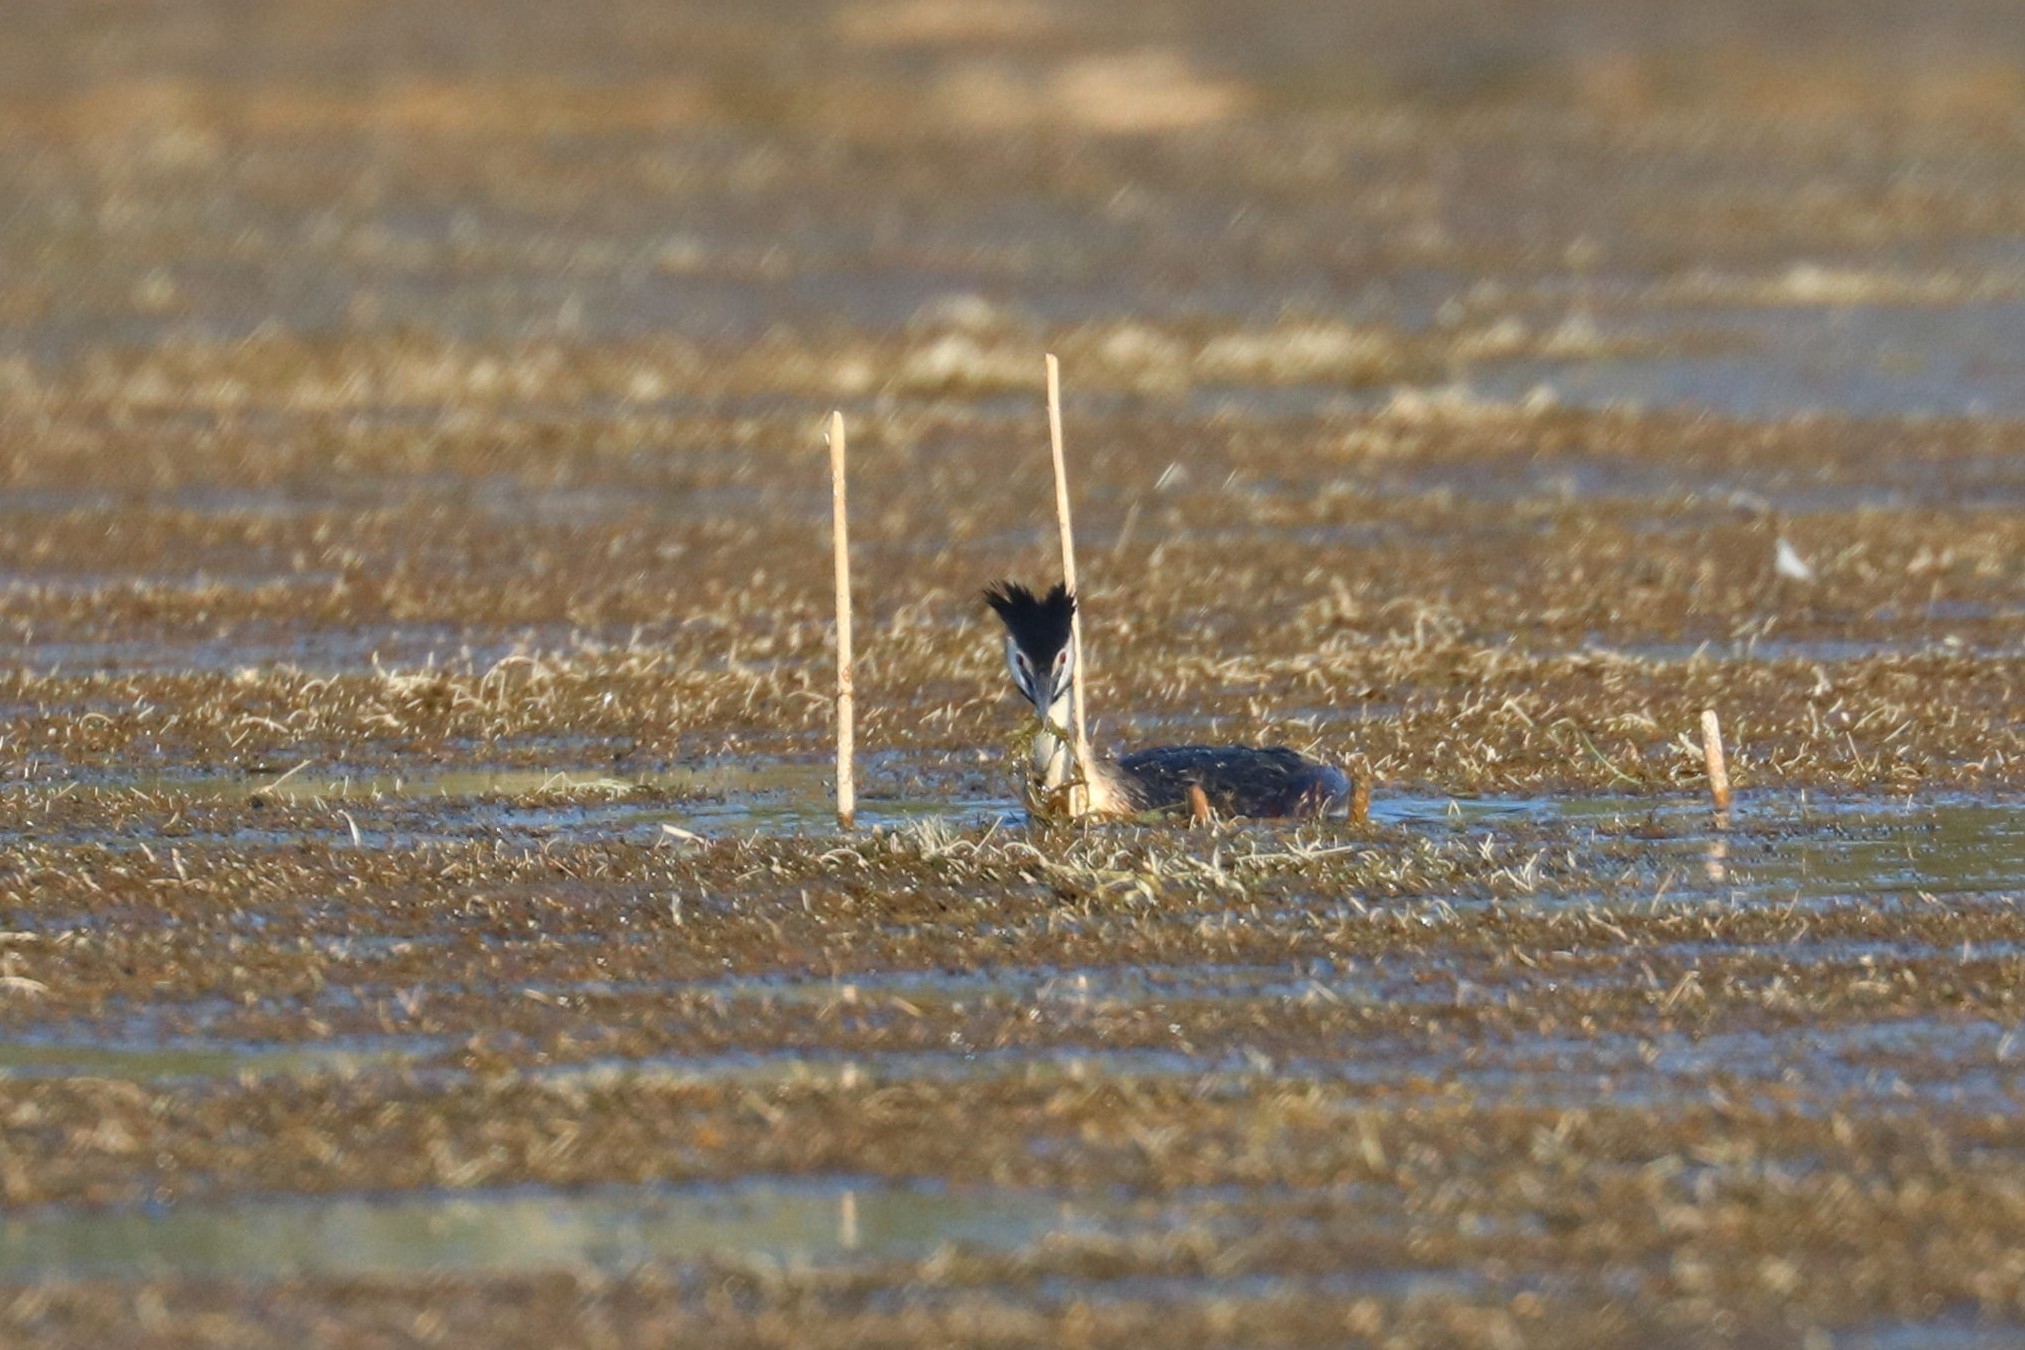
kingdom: Animalia
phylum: Chordata
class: Aves
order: Podicipediformes
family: Podicipedidae
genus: Podiceps
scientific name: Podiceps cristatus
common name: Great crested grebe
